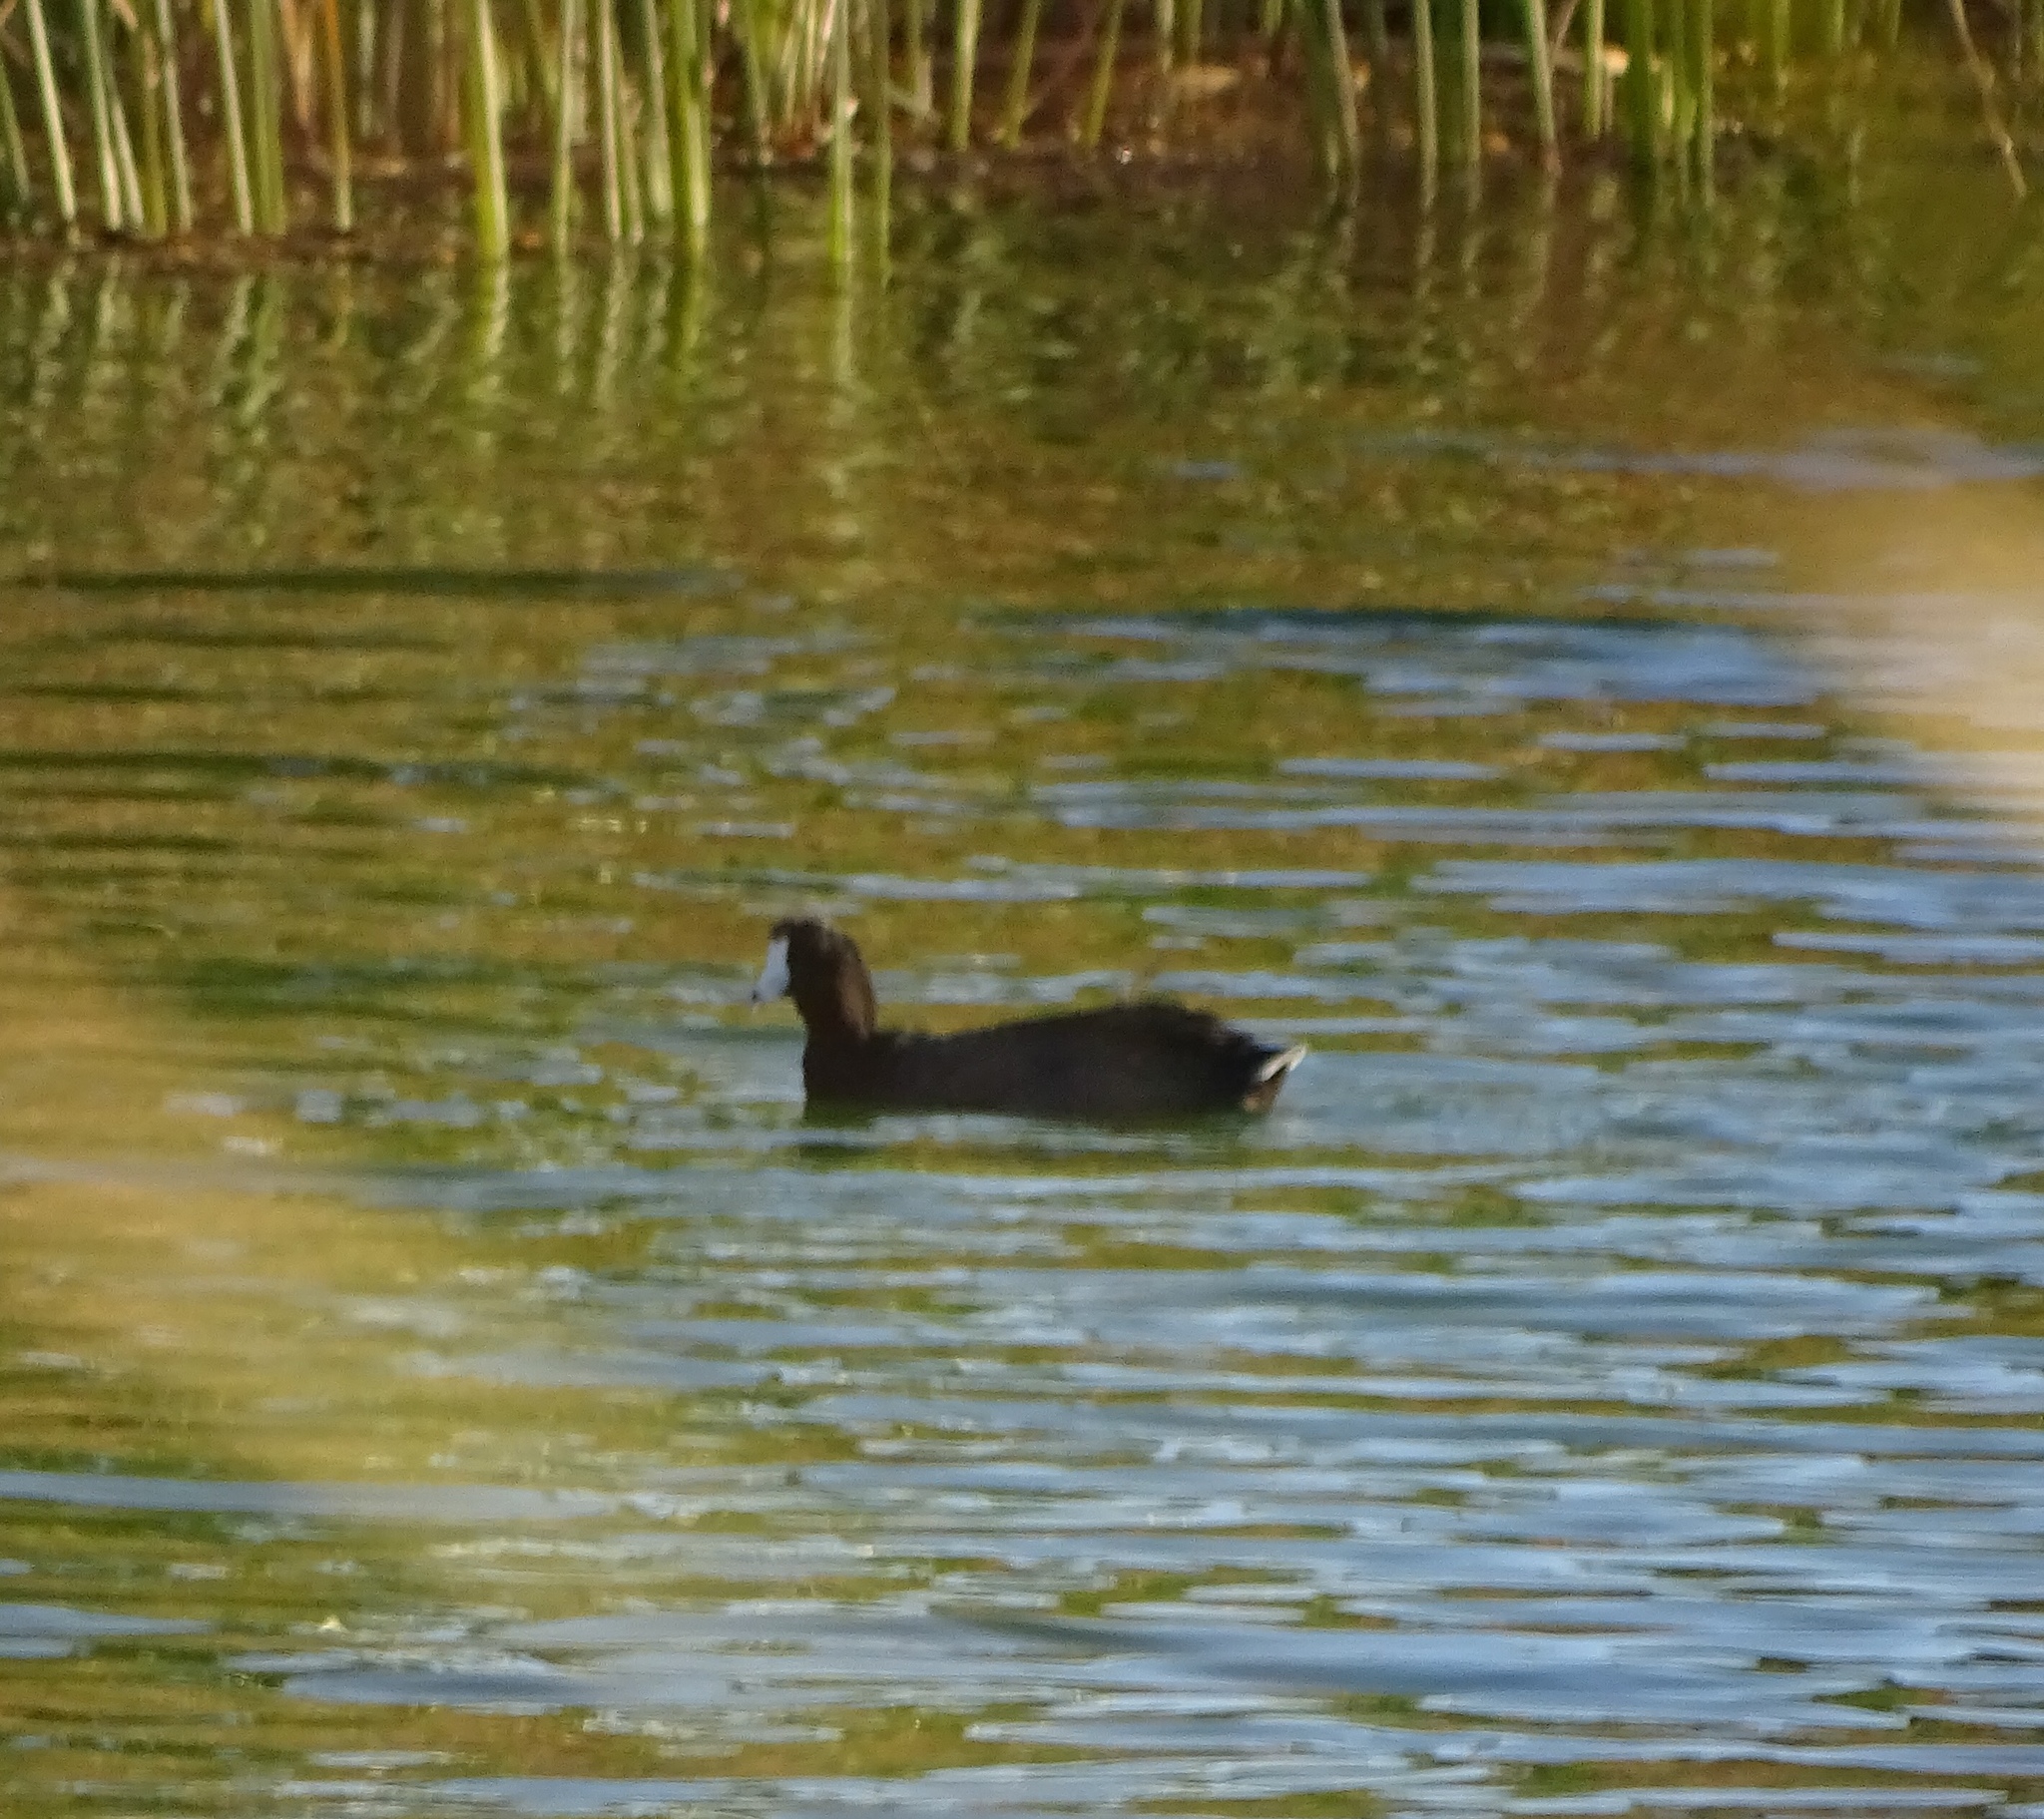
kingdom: Animalia
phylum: Chordata
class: Aves
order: Gruiformes
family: Rallidae
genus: Fulica
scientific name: Fulica americana
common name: American coot
